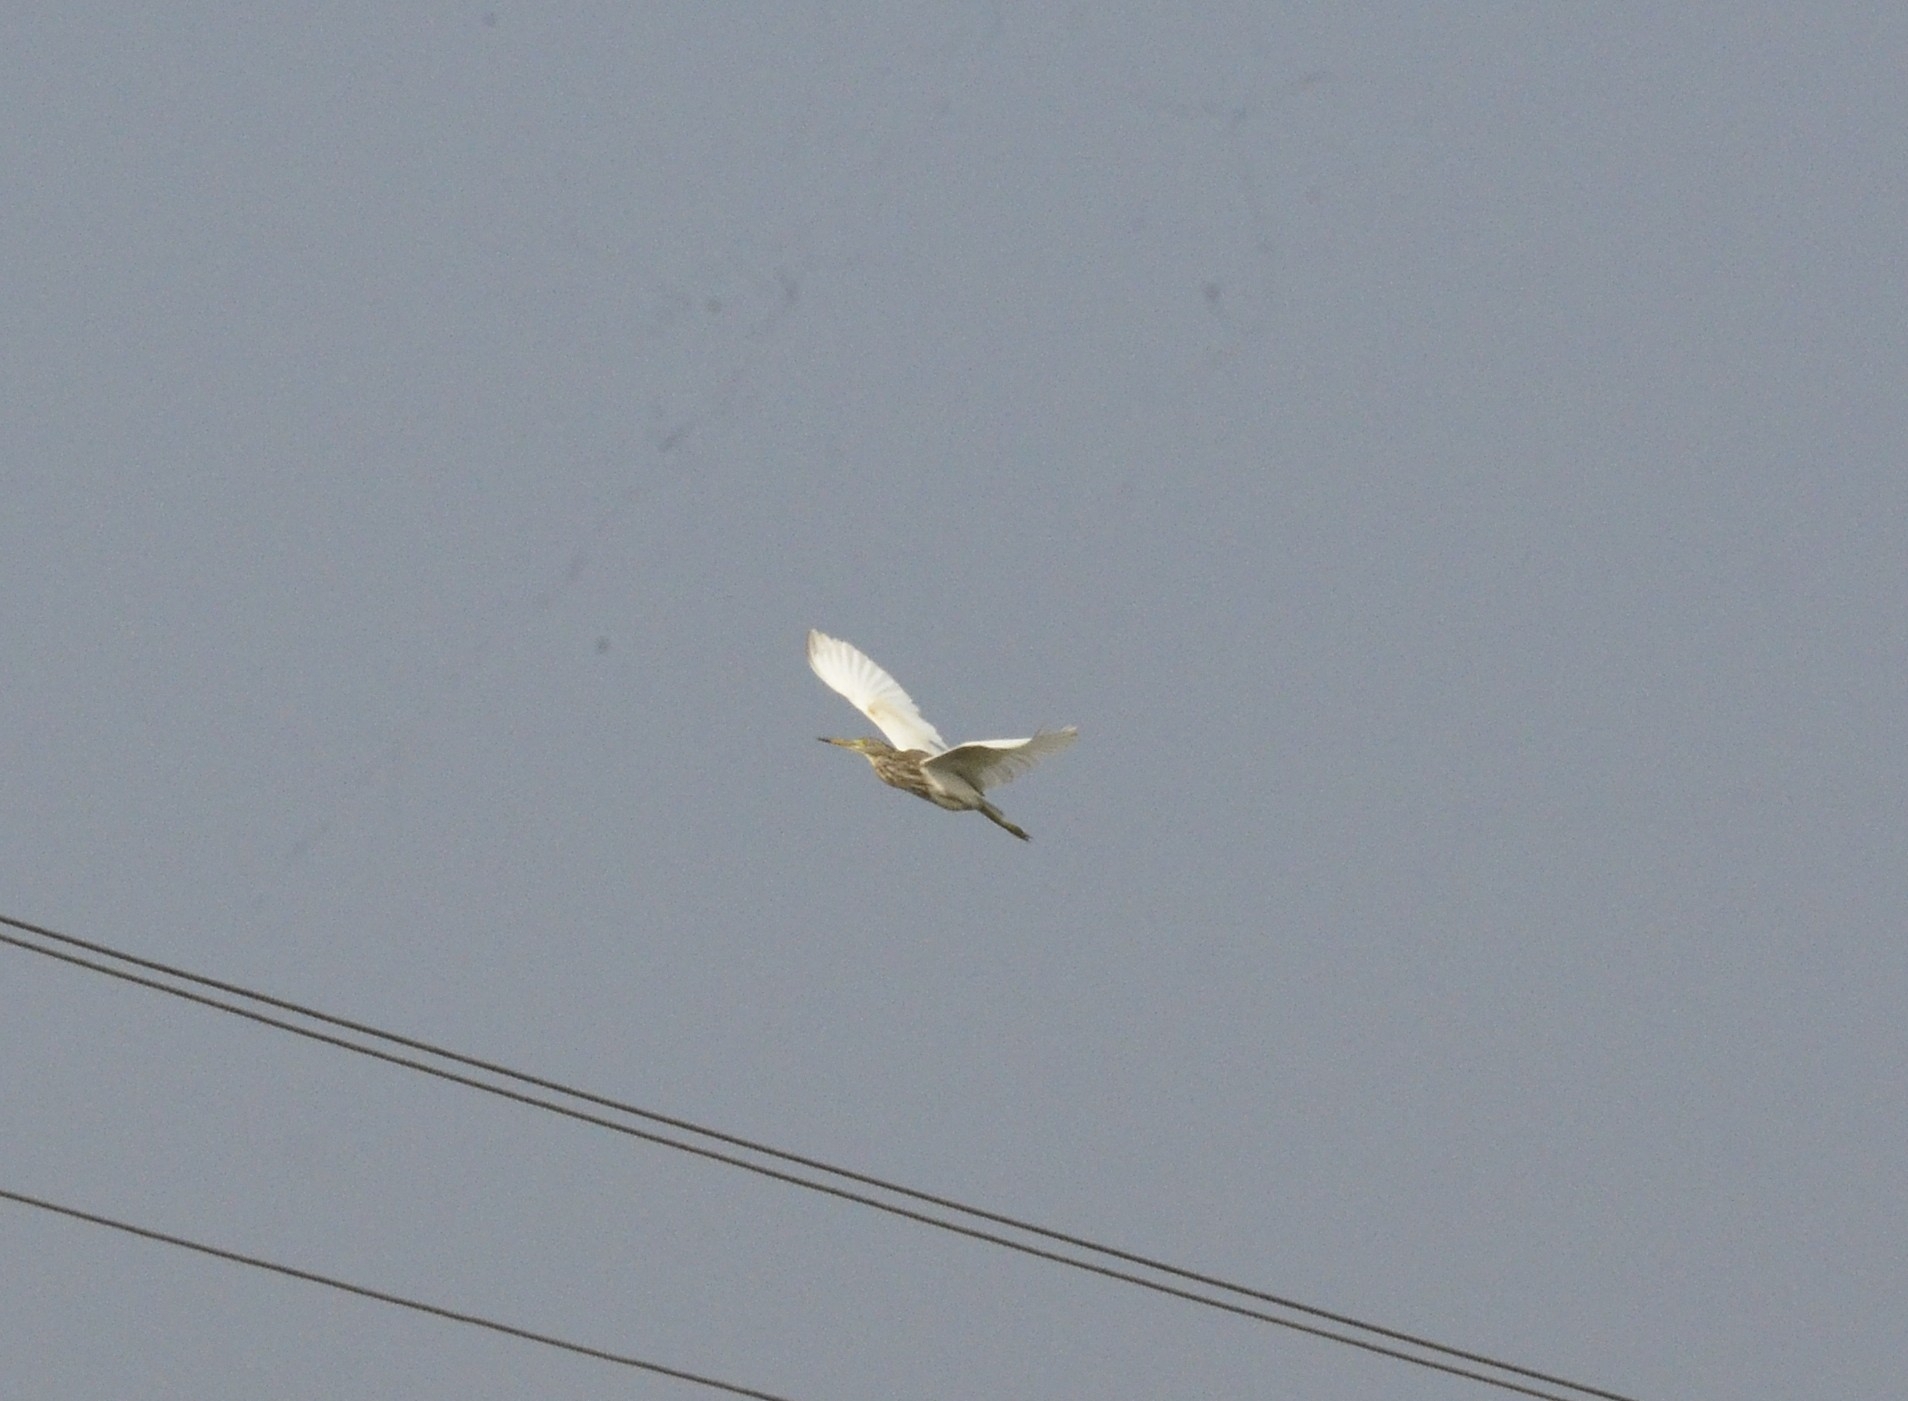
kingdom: Animalia
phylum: Chordata
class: Aves
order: Pelecaniformes
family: Ardeidae
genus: Ardeola
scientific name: Ardeola grayii
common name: Indian pond heron
